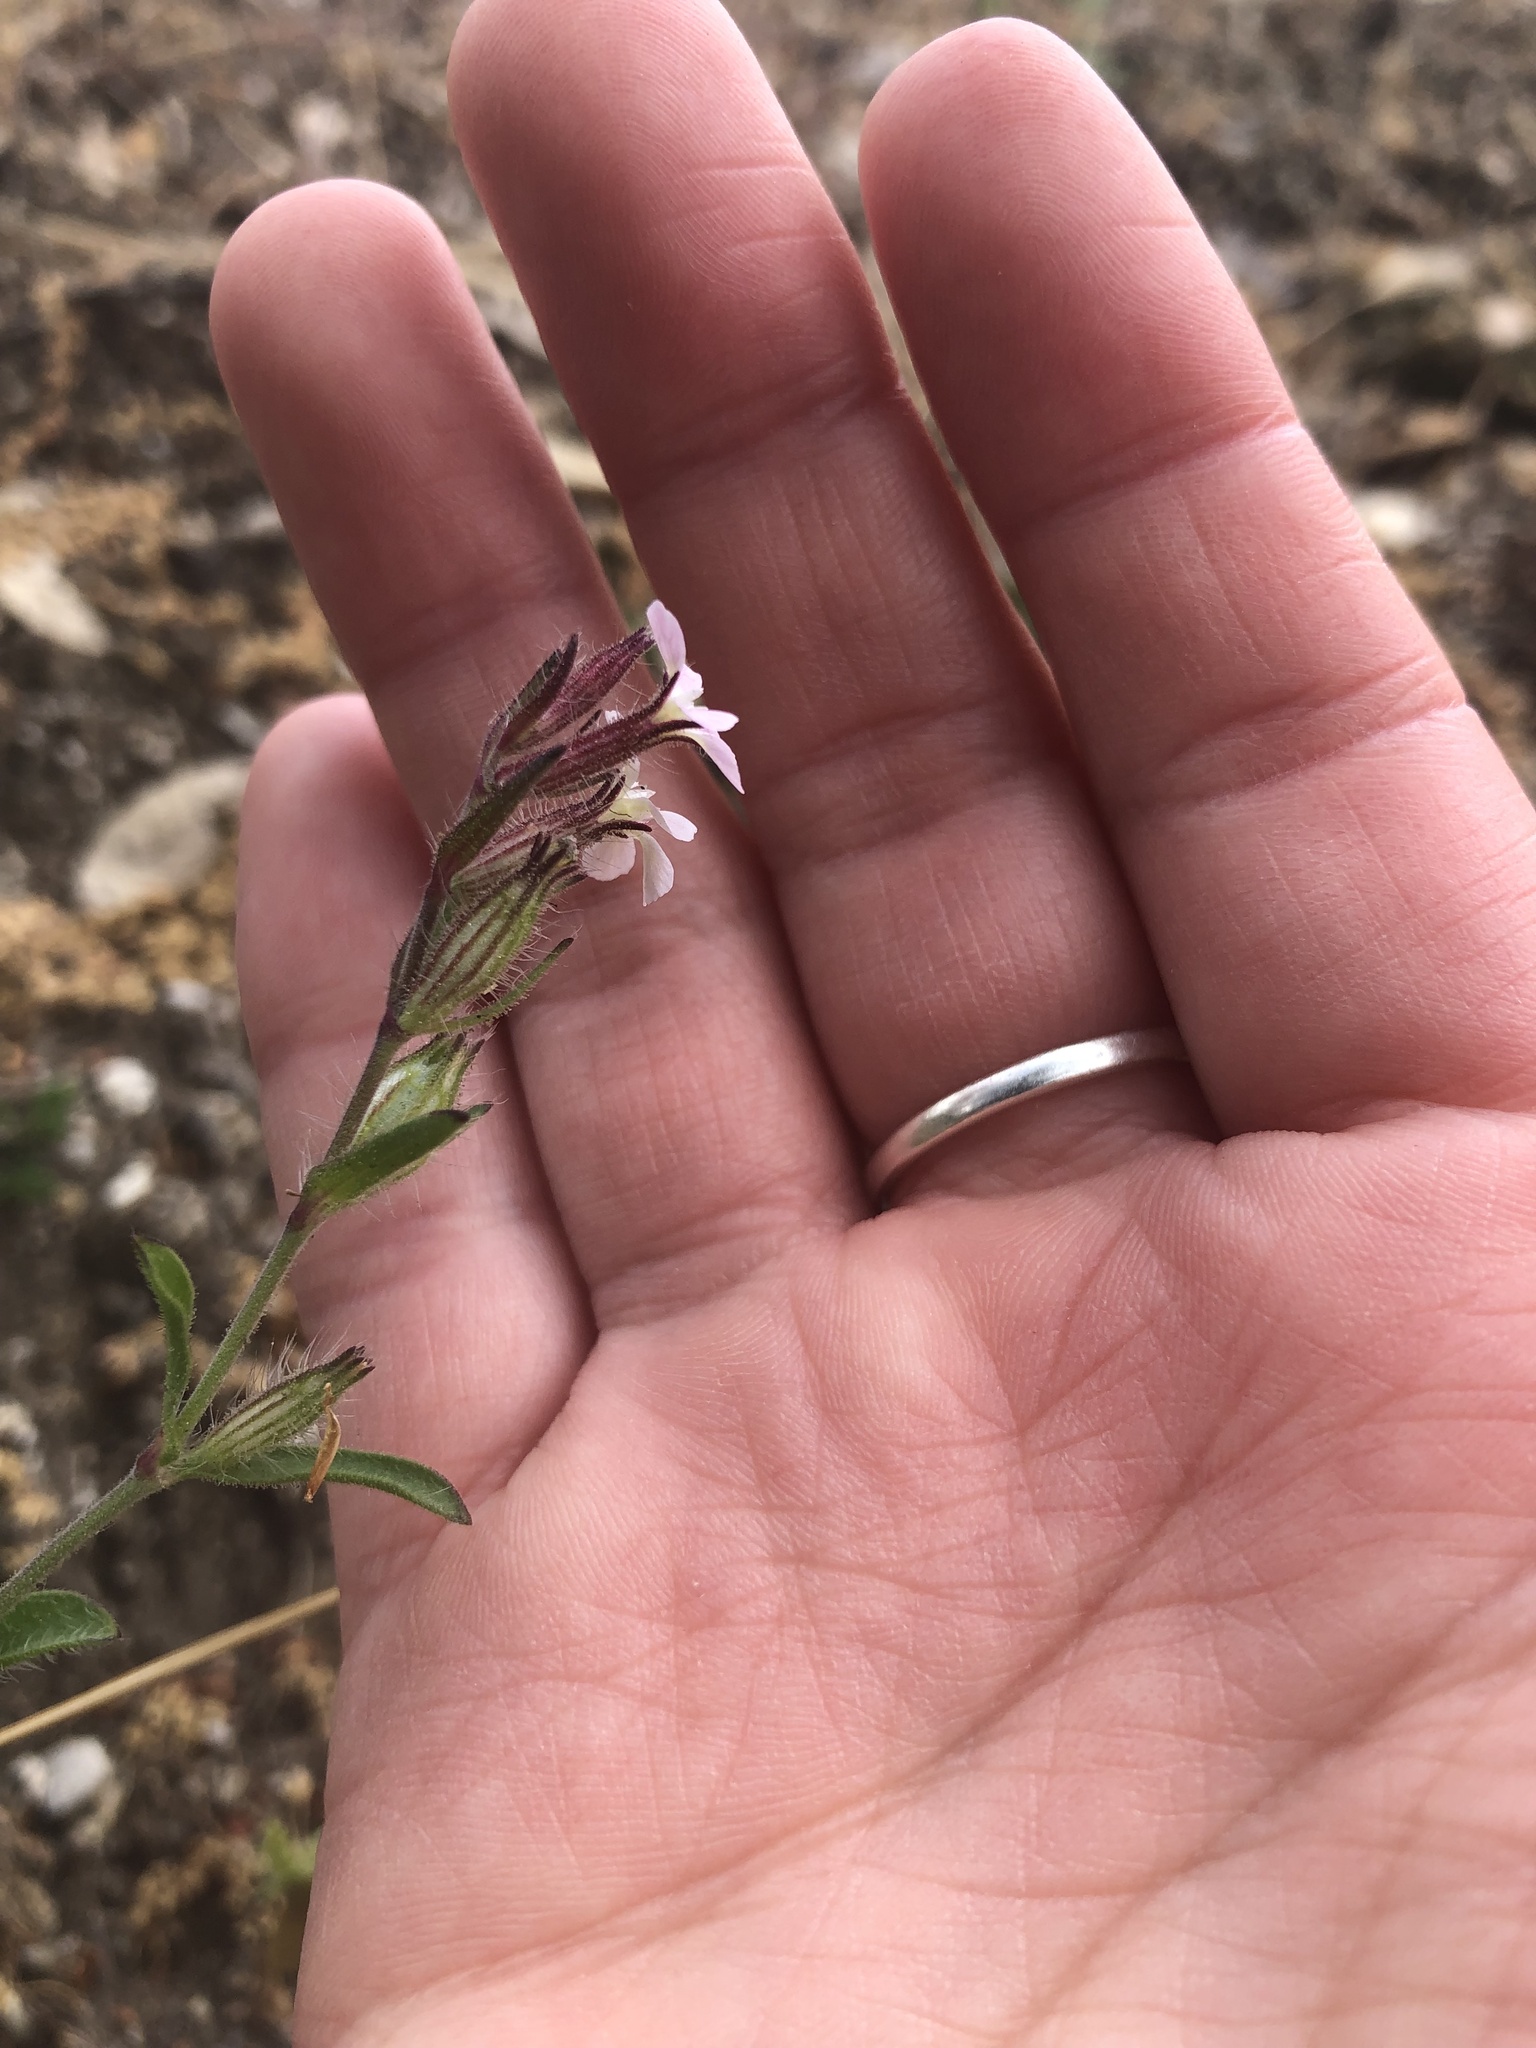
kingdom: Plantae
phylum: Tracheophyta
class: Magnoliopsida
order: Caryophyllales
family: Caryophyllaceae
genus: Silene
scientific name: Silene gallica
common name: Small-flowered catchfly
